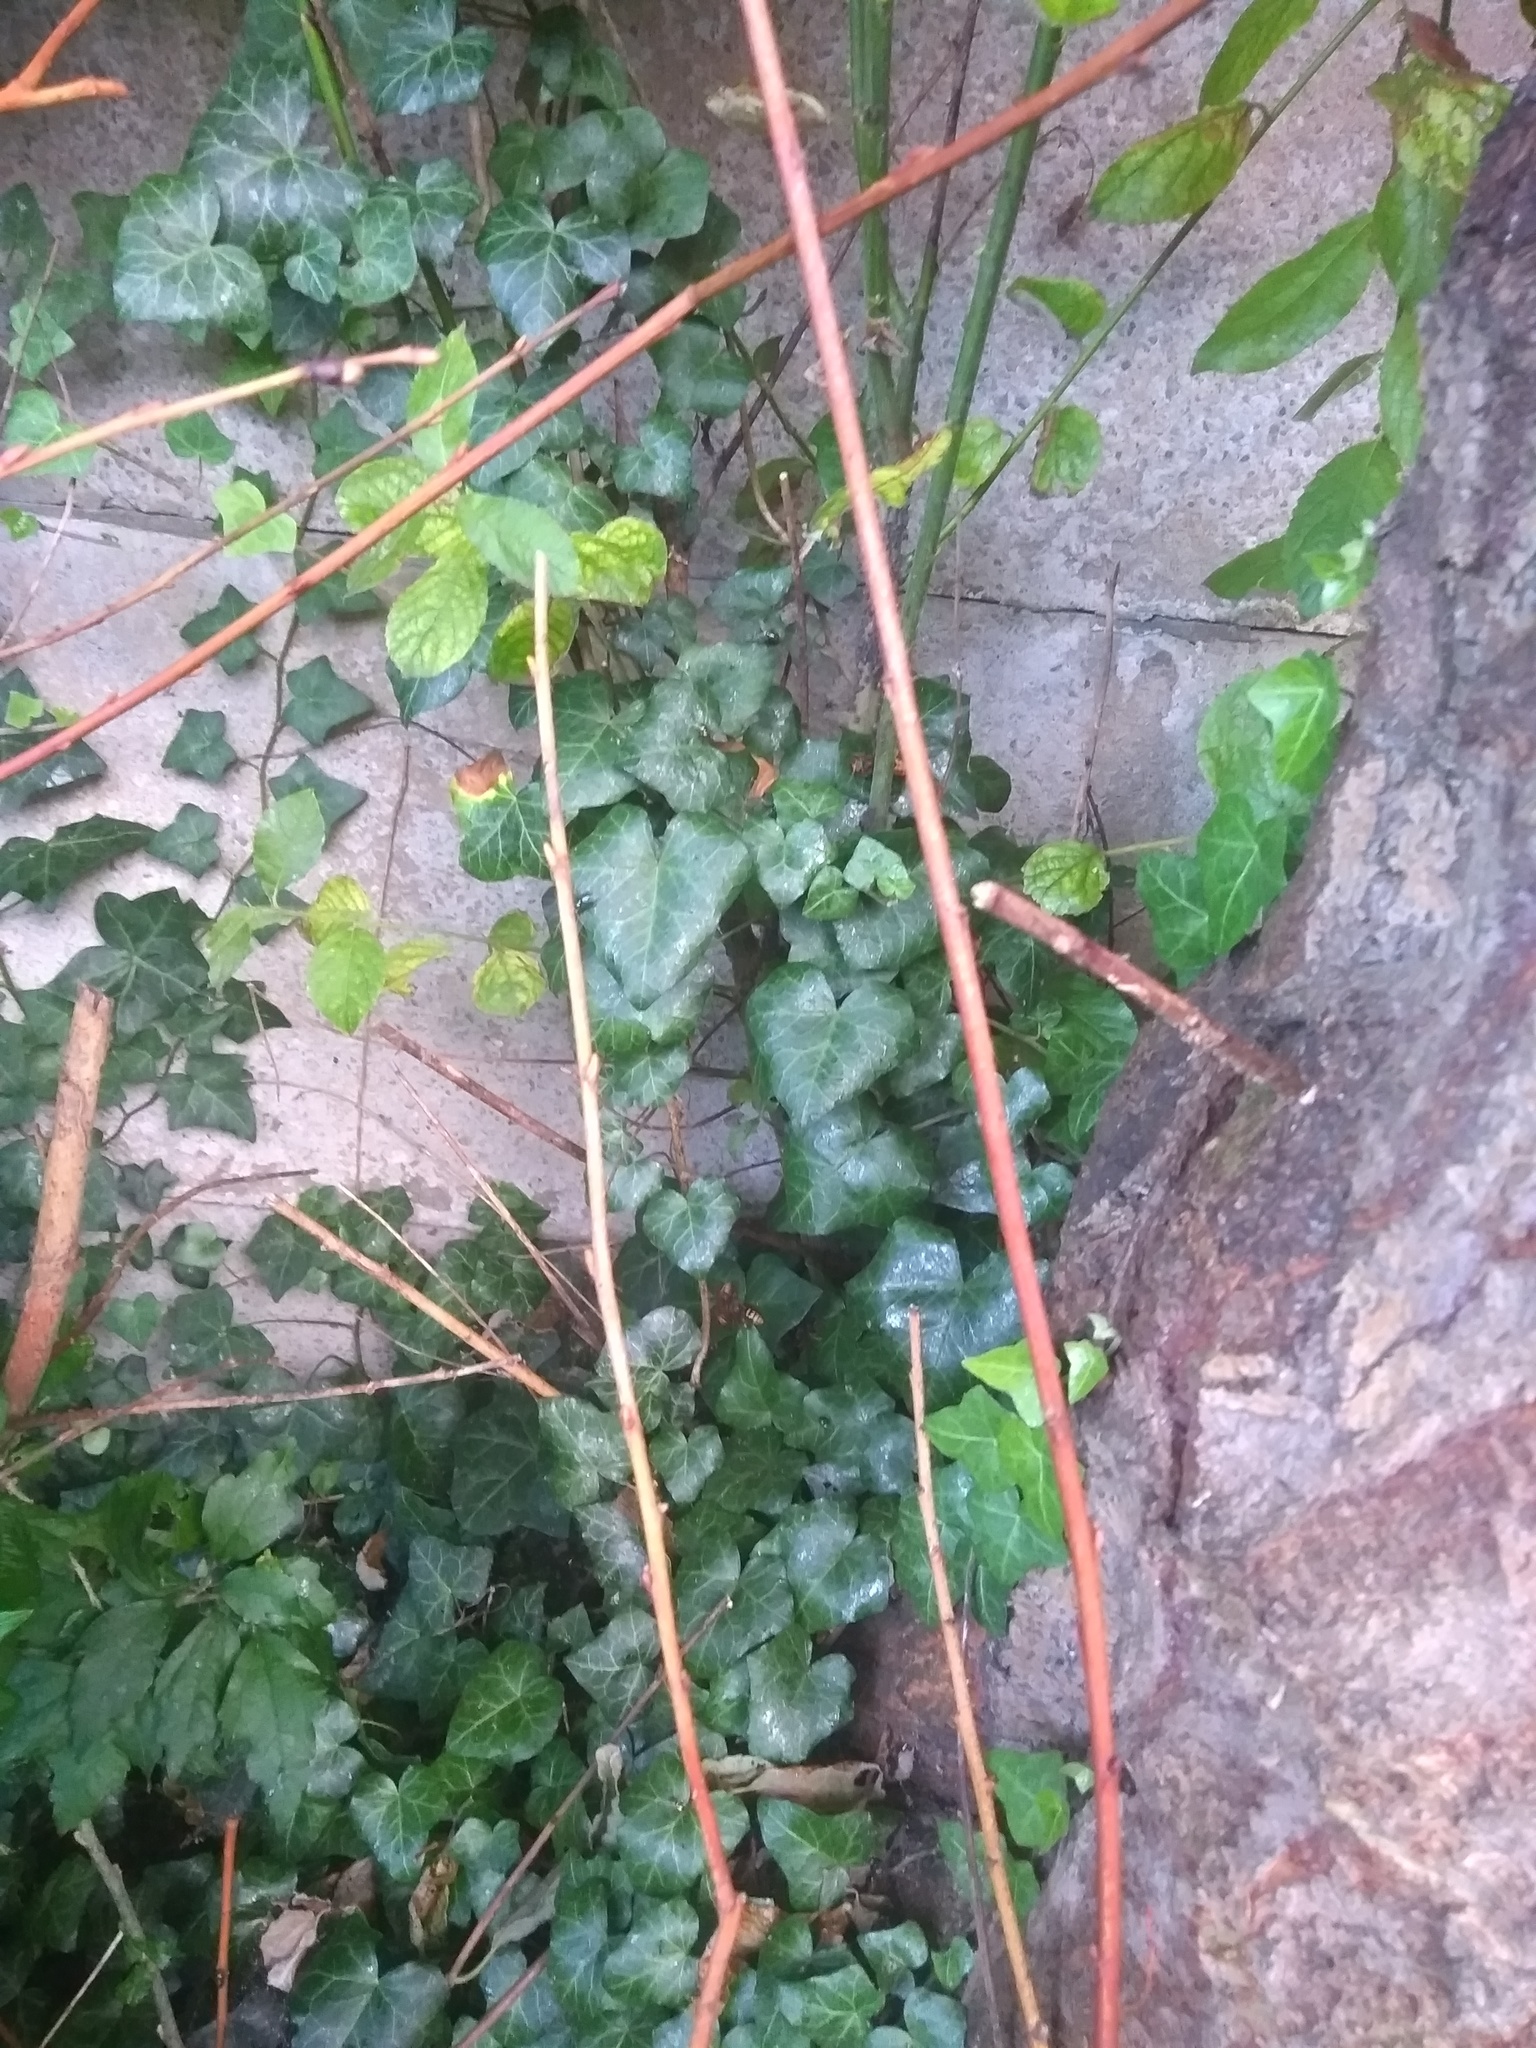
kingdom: Animalia
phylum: Arthropoda
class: Insecta
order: Hymenoptera
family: Vespidae
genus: Vespa
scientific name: Vespa velutina
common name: Asian hornet
